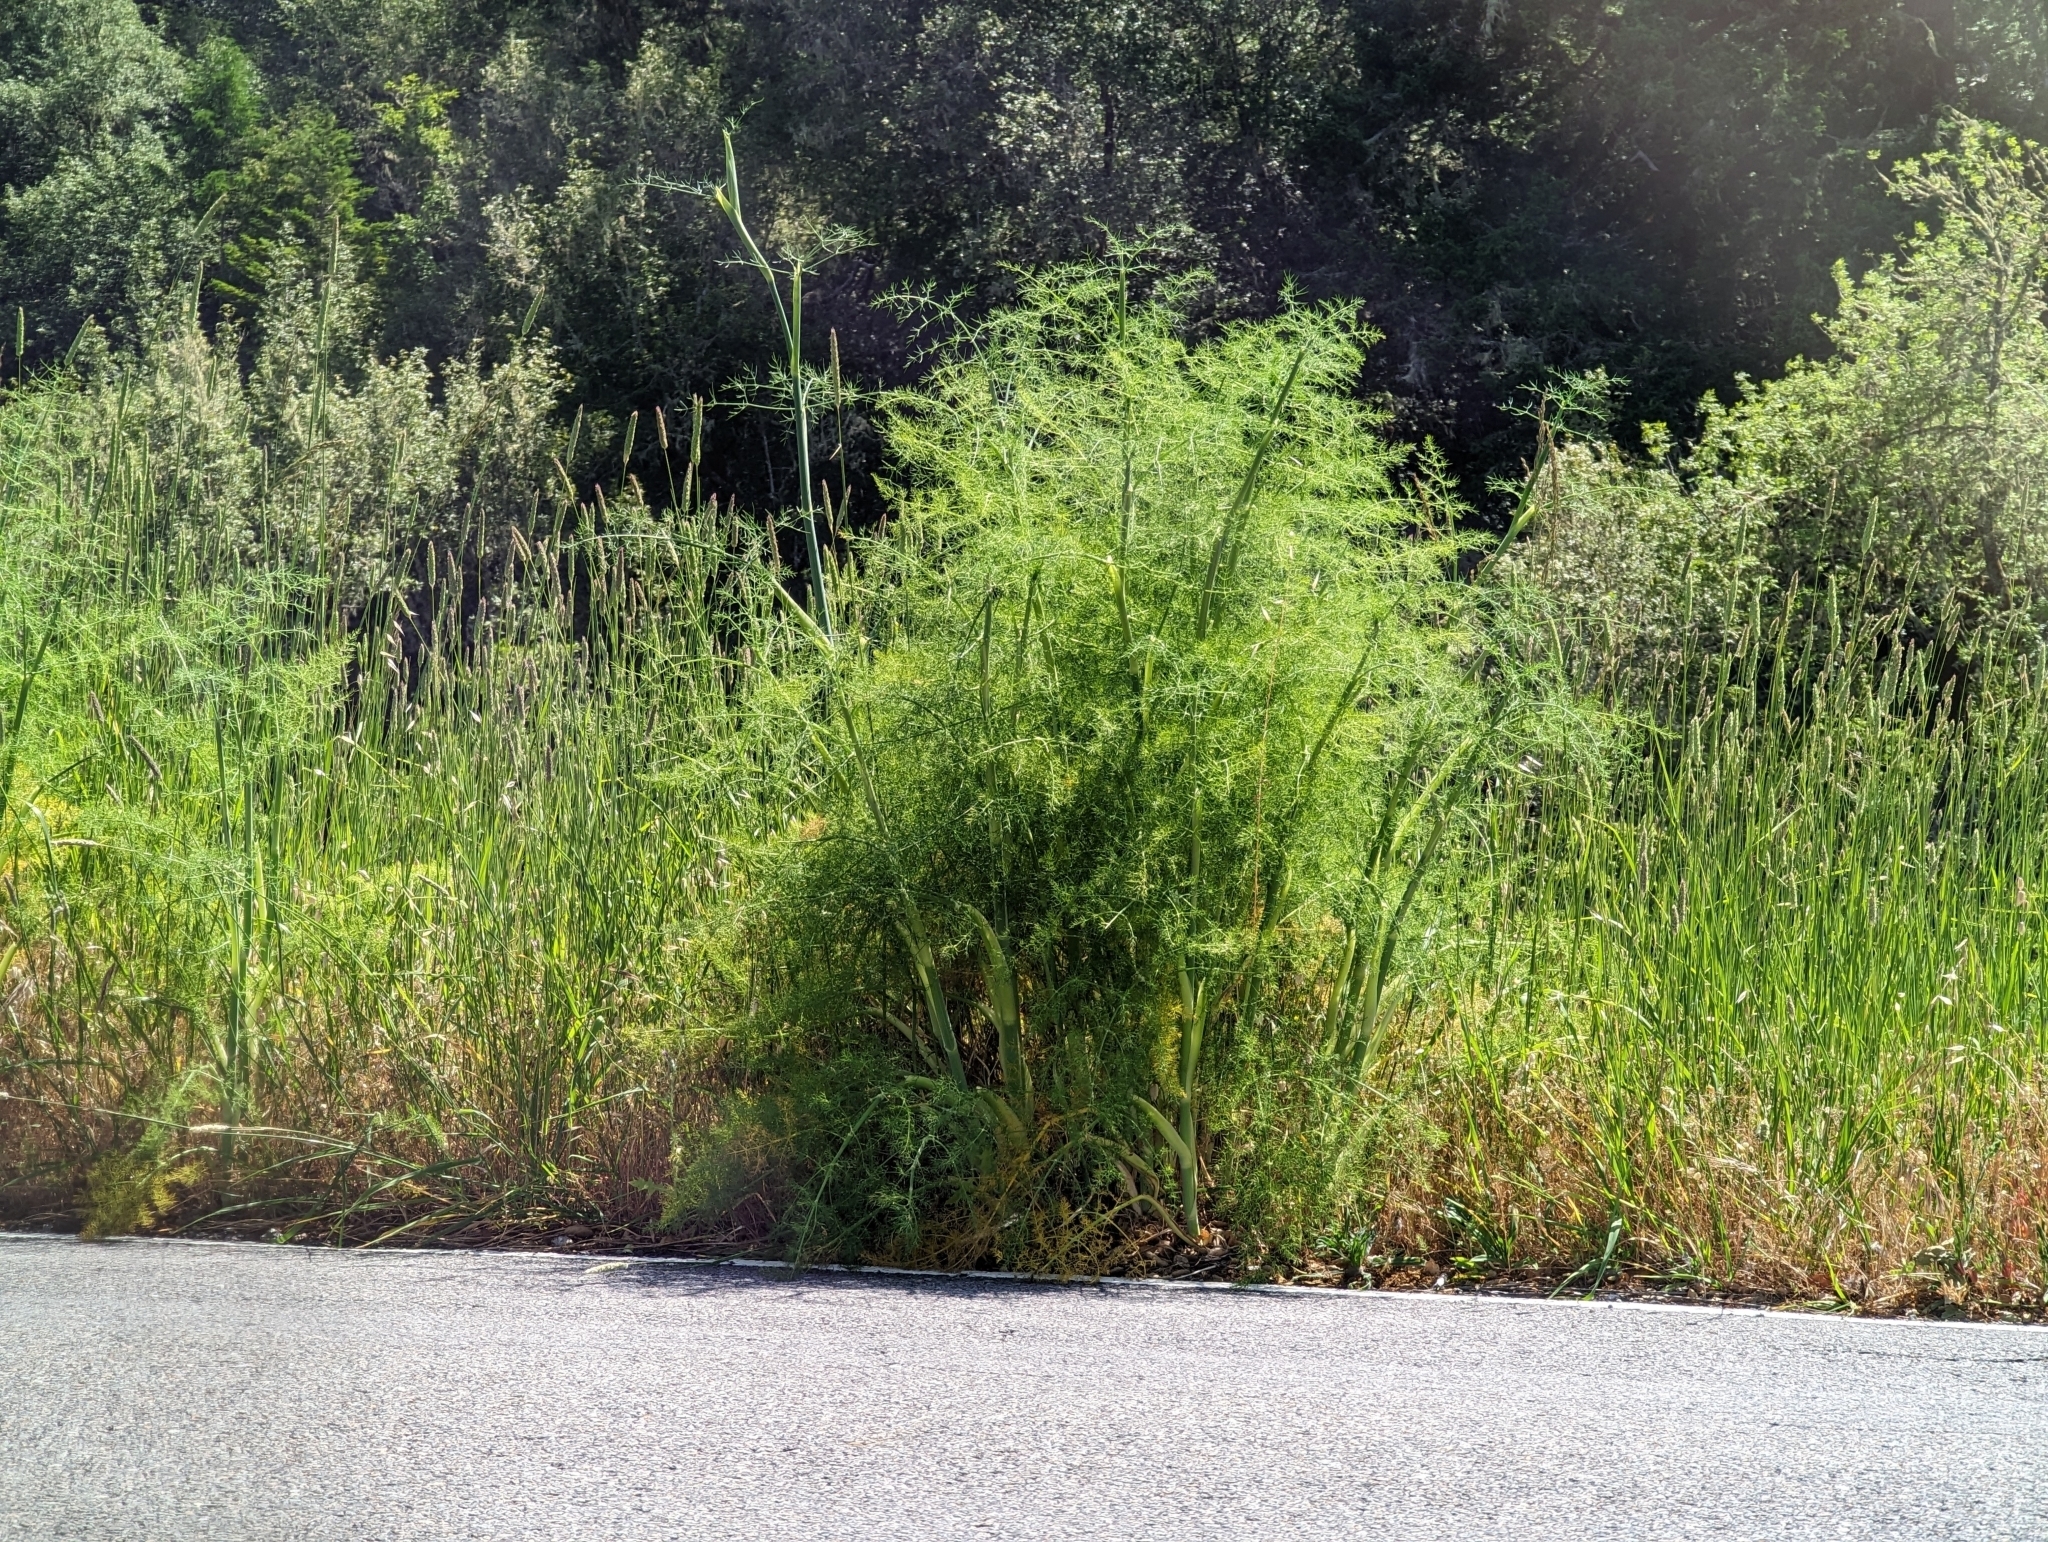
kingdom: Plantae
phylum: Tracheophyta
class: Magnoliopsida
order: Apiales
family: Apiaceae
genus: Foeniculum
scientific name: Foeniculum vulgare
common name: Fennel
